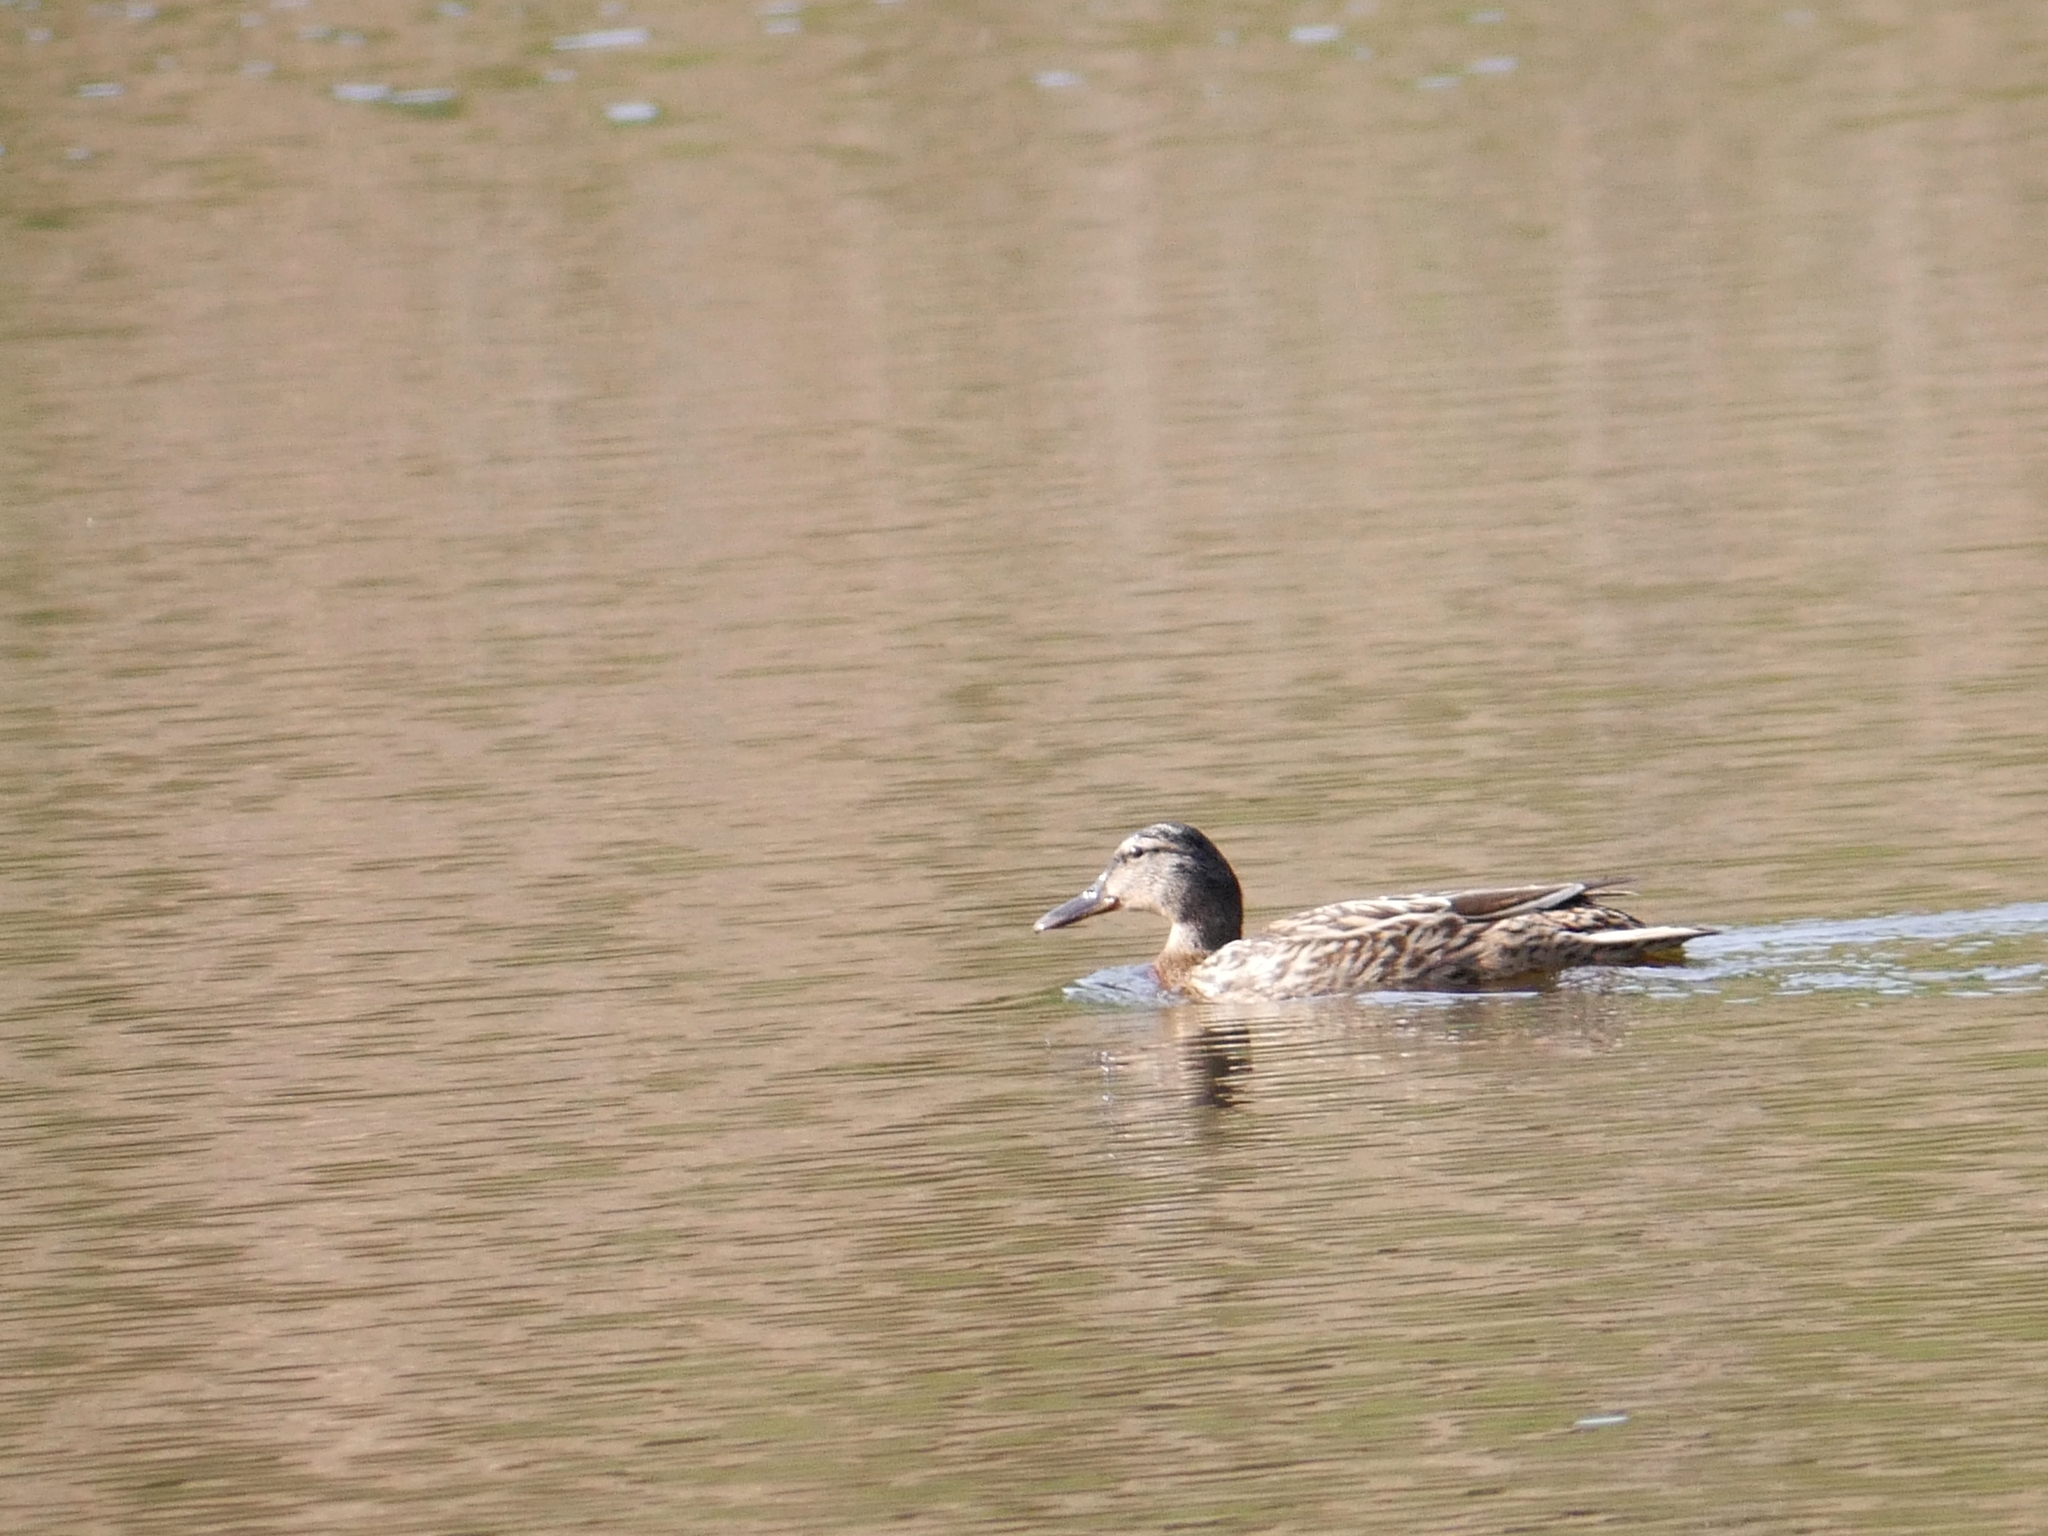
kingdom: Animalia
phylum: Chordata
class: Aves
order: Anseriformes
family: Anatidae
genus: Anas
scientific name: Anas platyrhynchos
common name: Mallard
